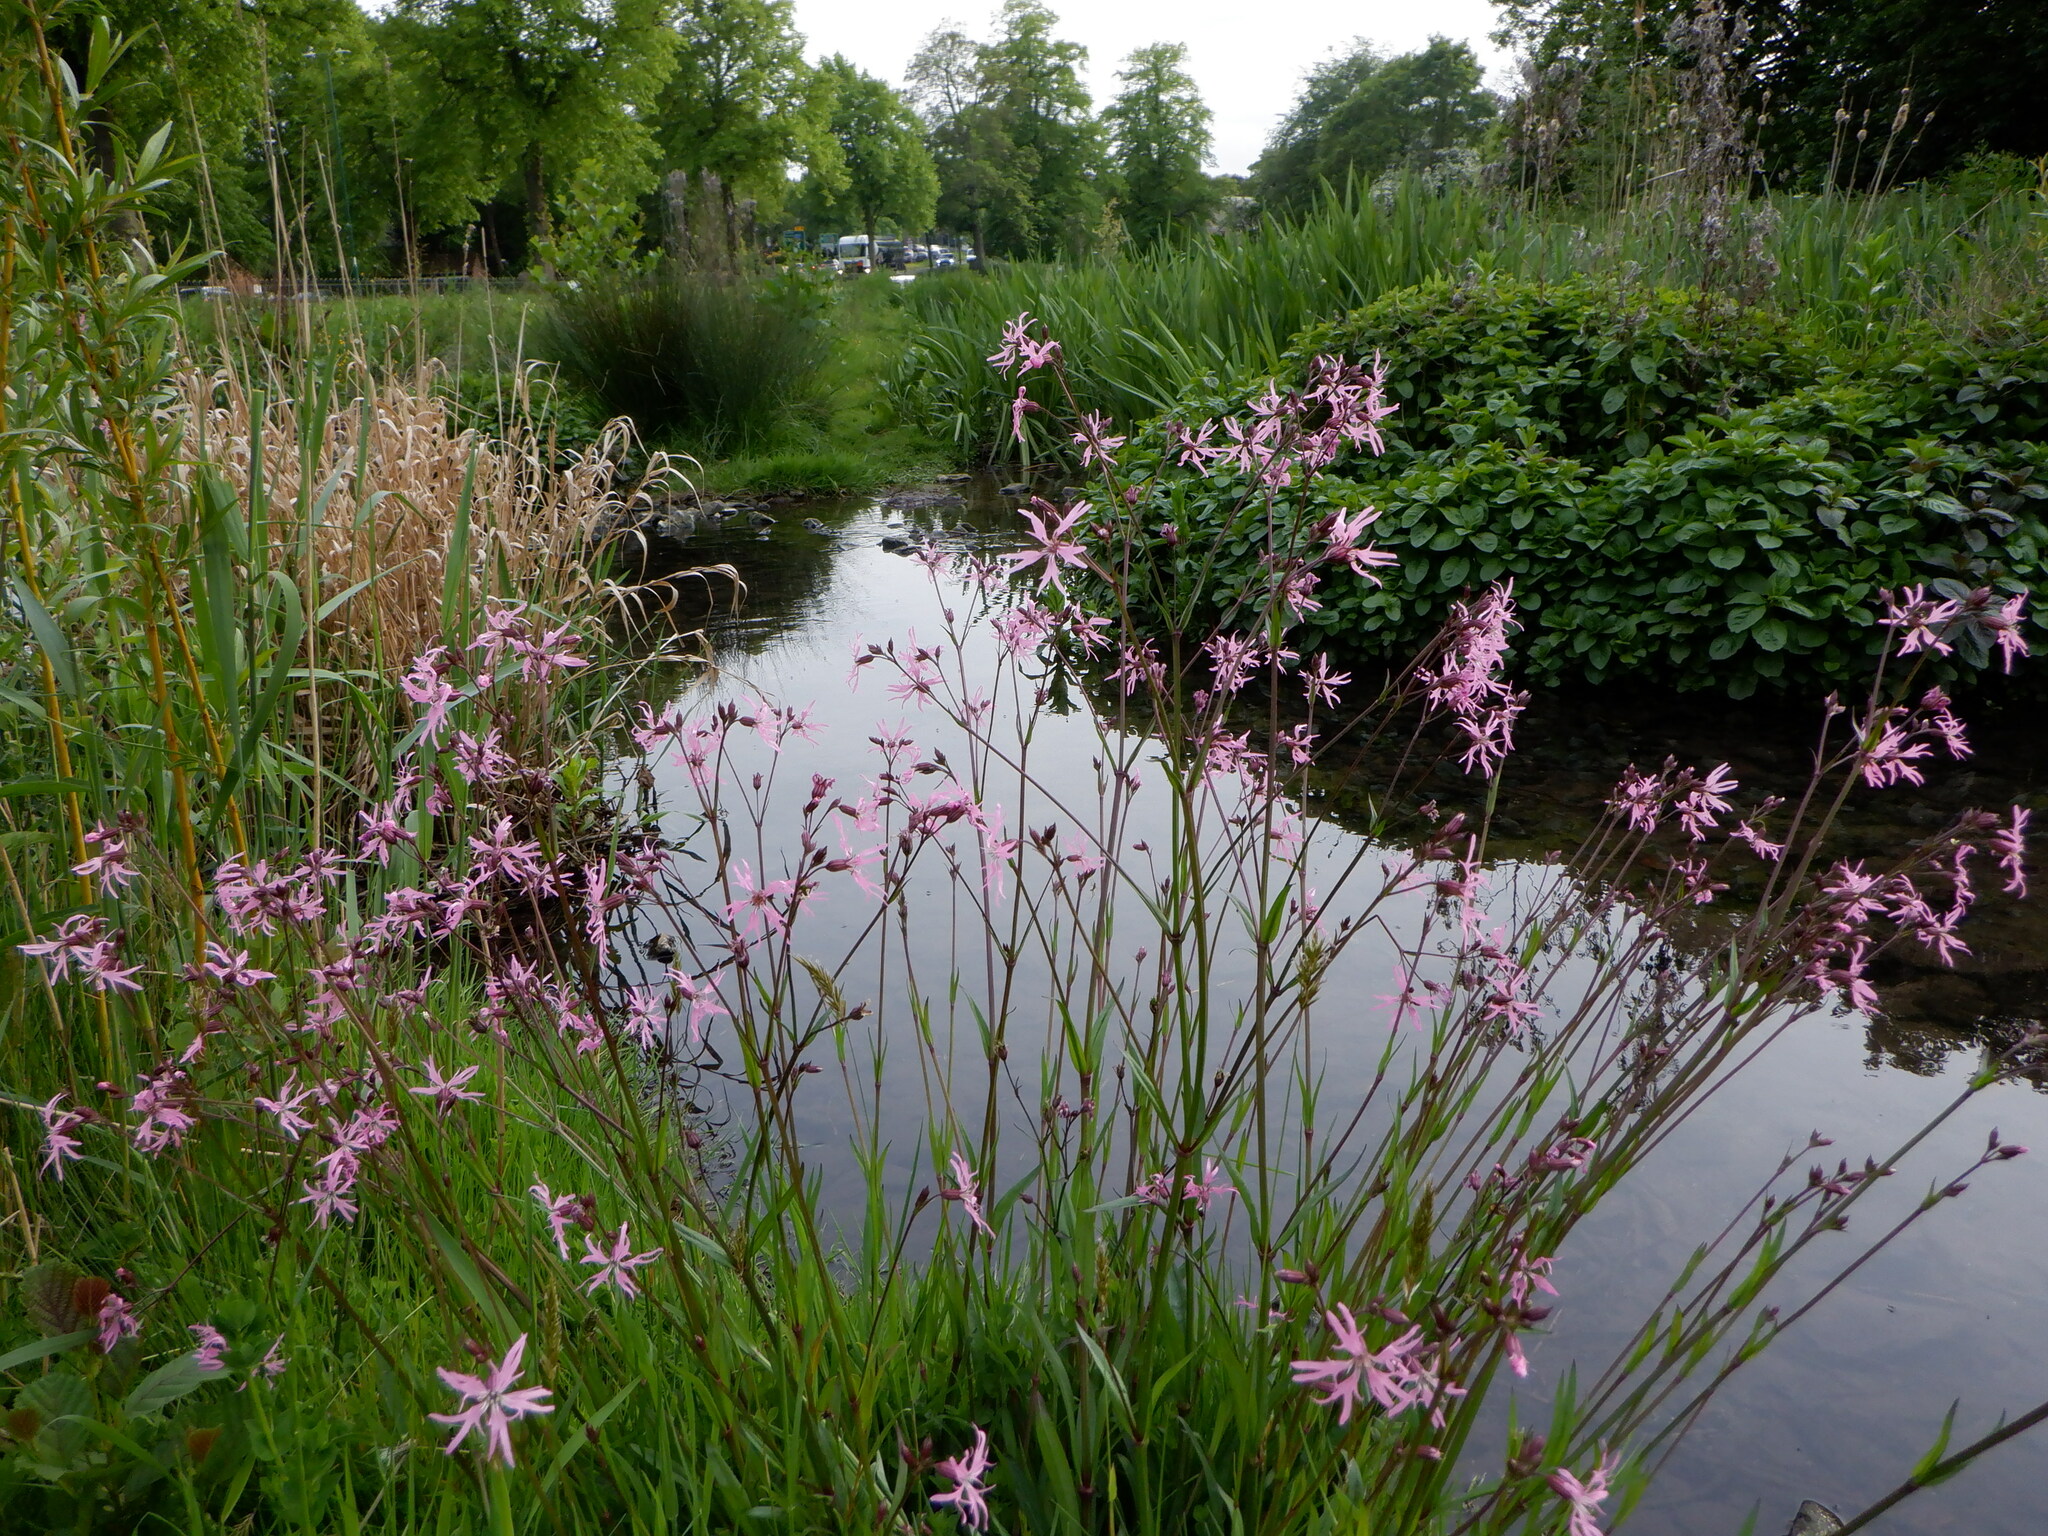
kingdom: Plantae
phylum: Tracheophyta
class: Magnoliopsida
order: Caryophyllales
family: Caryophyllaceae
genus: Silene
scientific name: Silene flos-cuculi
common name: Ragged-robin
